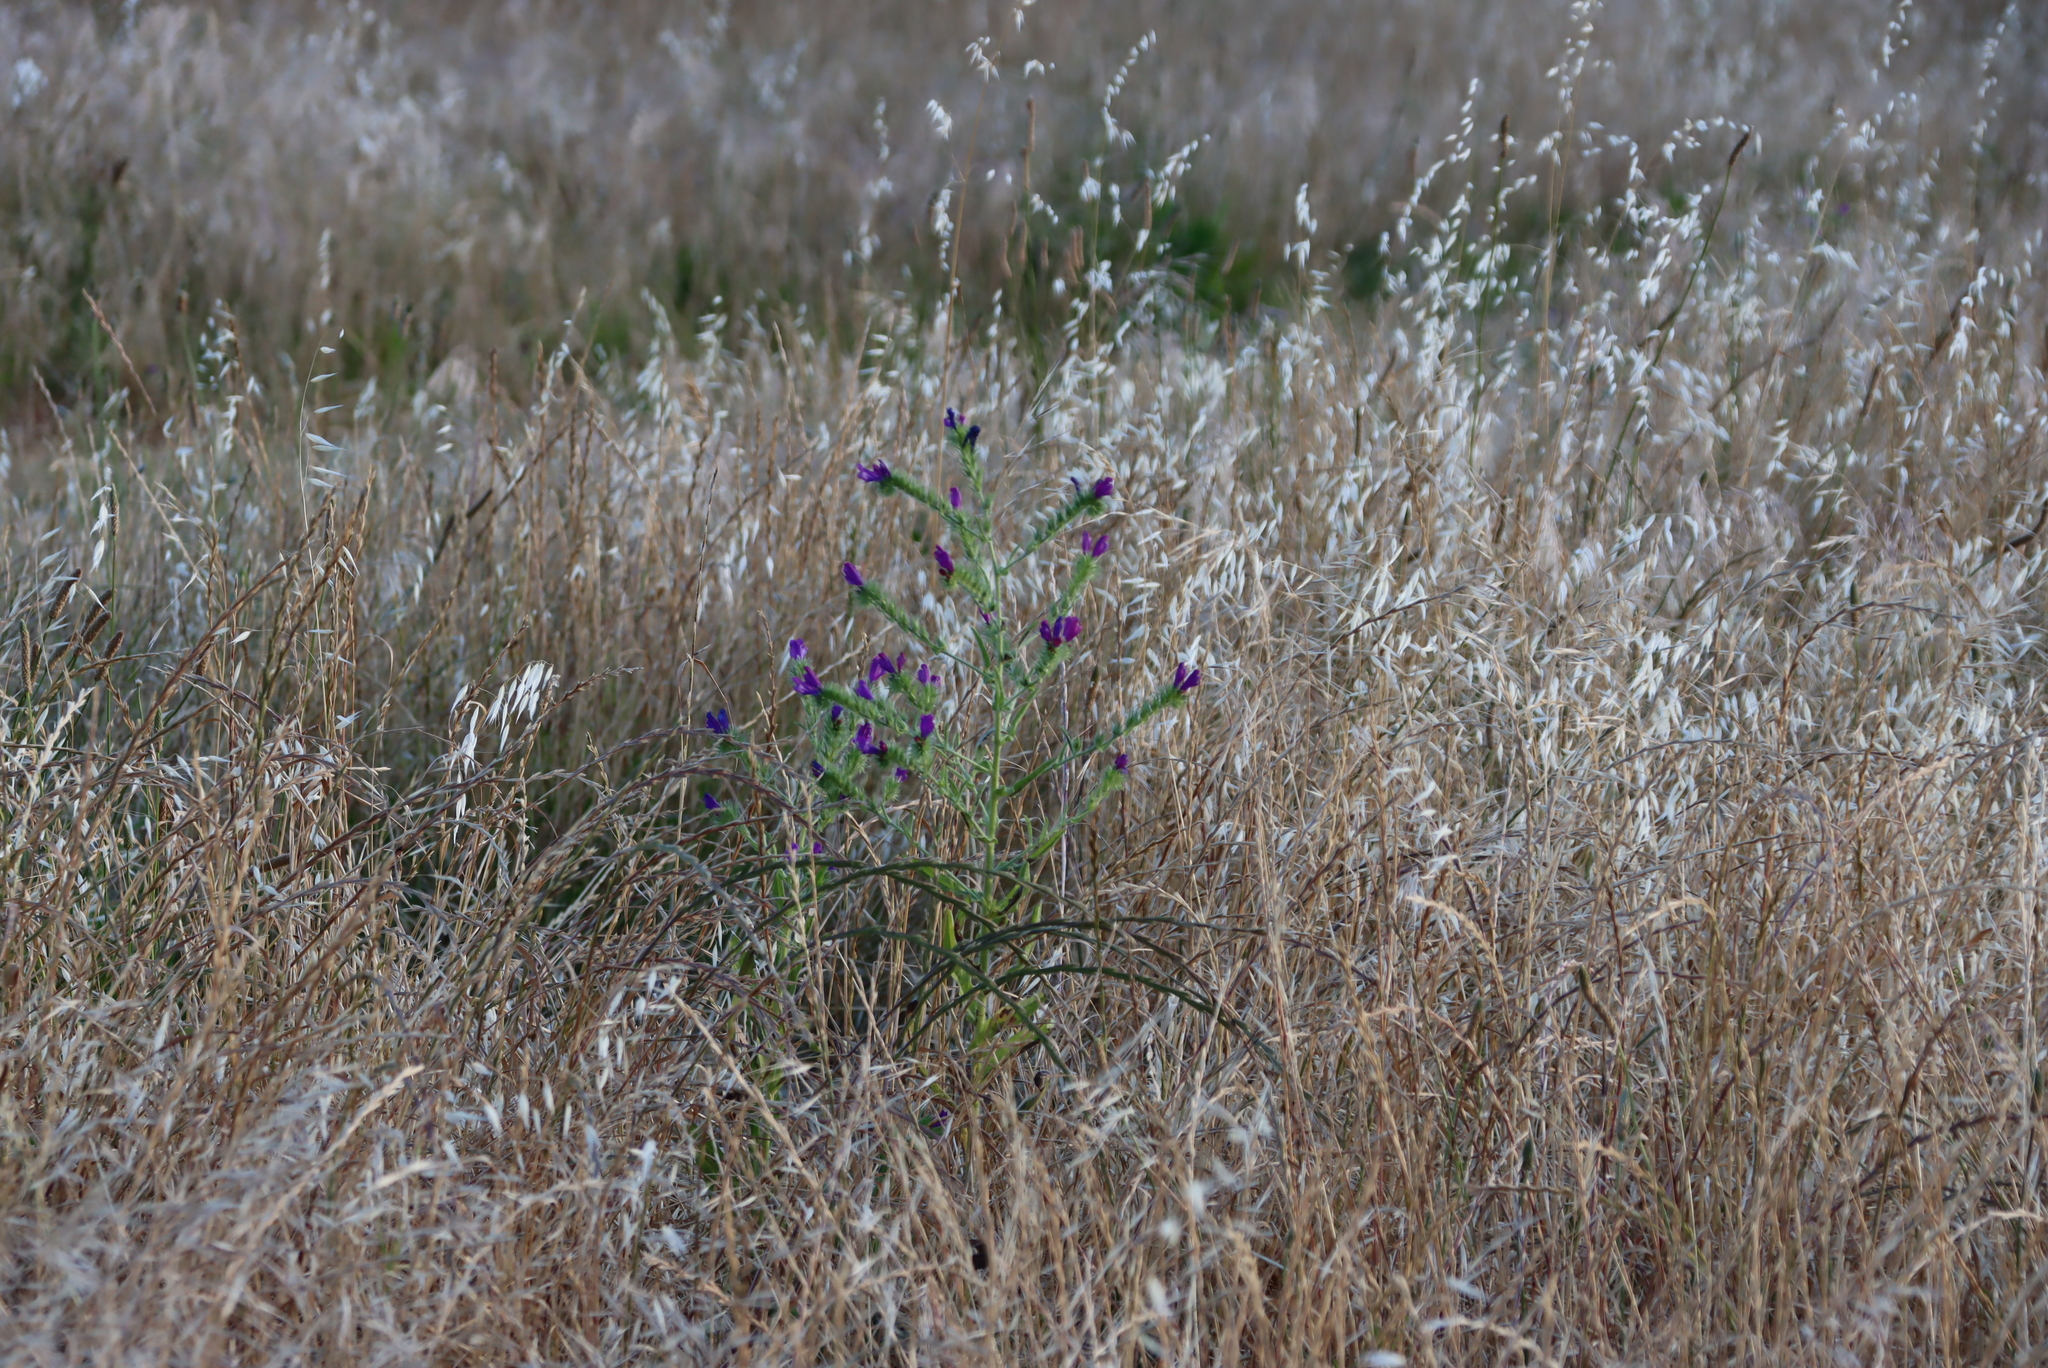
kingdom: Plantae
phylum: Tracheophyta
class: Magnoliopsida
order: Boraginales
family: Boraginaceae
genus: Echium
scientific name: Echium plantagineum
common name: Purple viper's-bugloss
